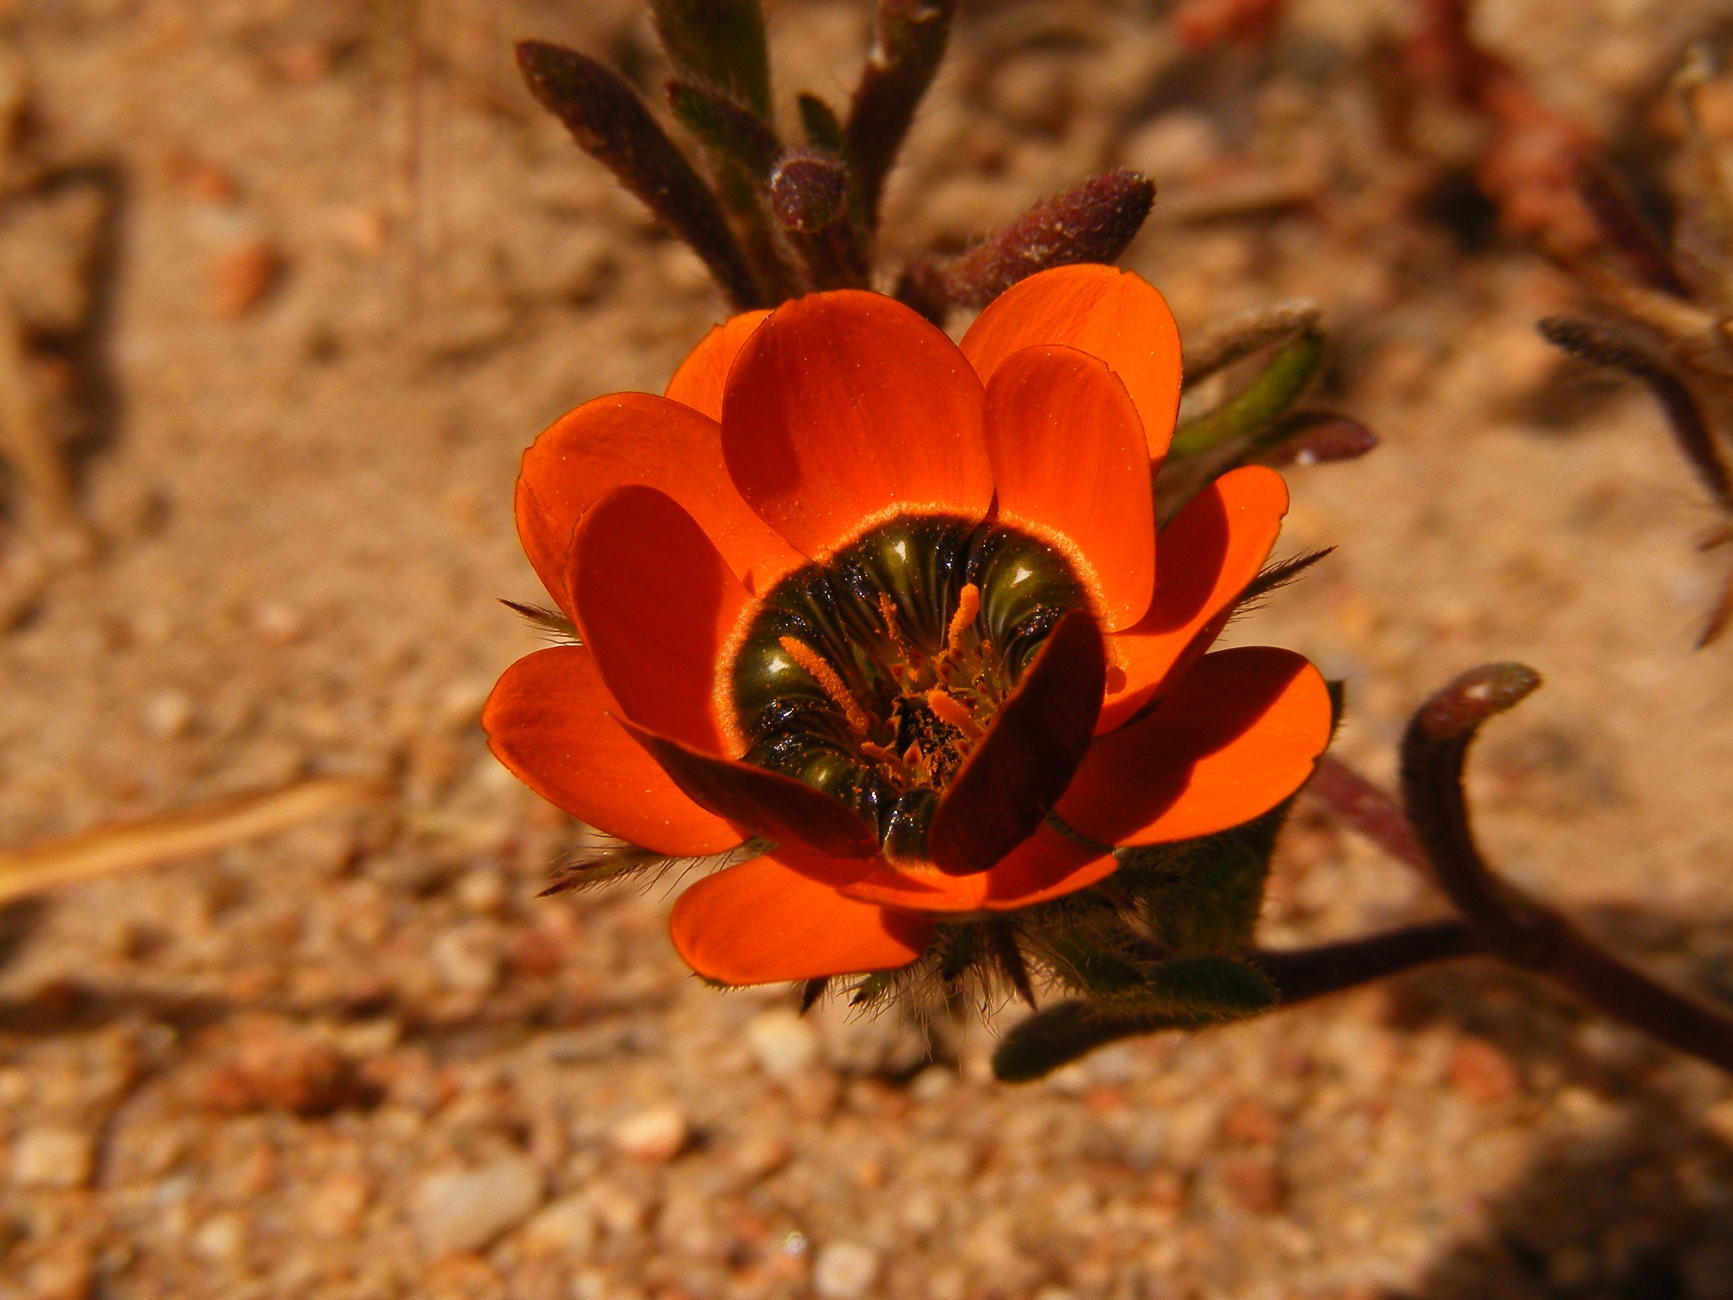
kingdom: Plantae
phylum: Tracheophyta
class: Magnoliopsida
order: Asterales
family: Asteraceae
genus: Gorteria
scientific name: Gorteria diffusa
